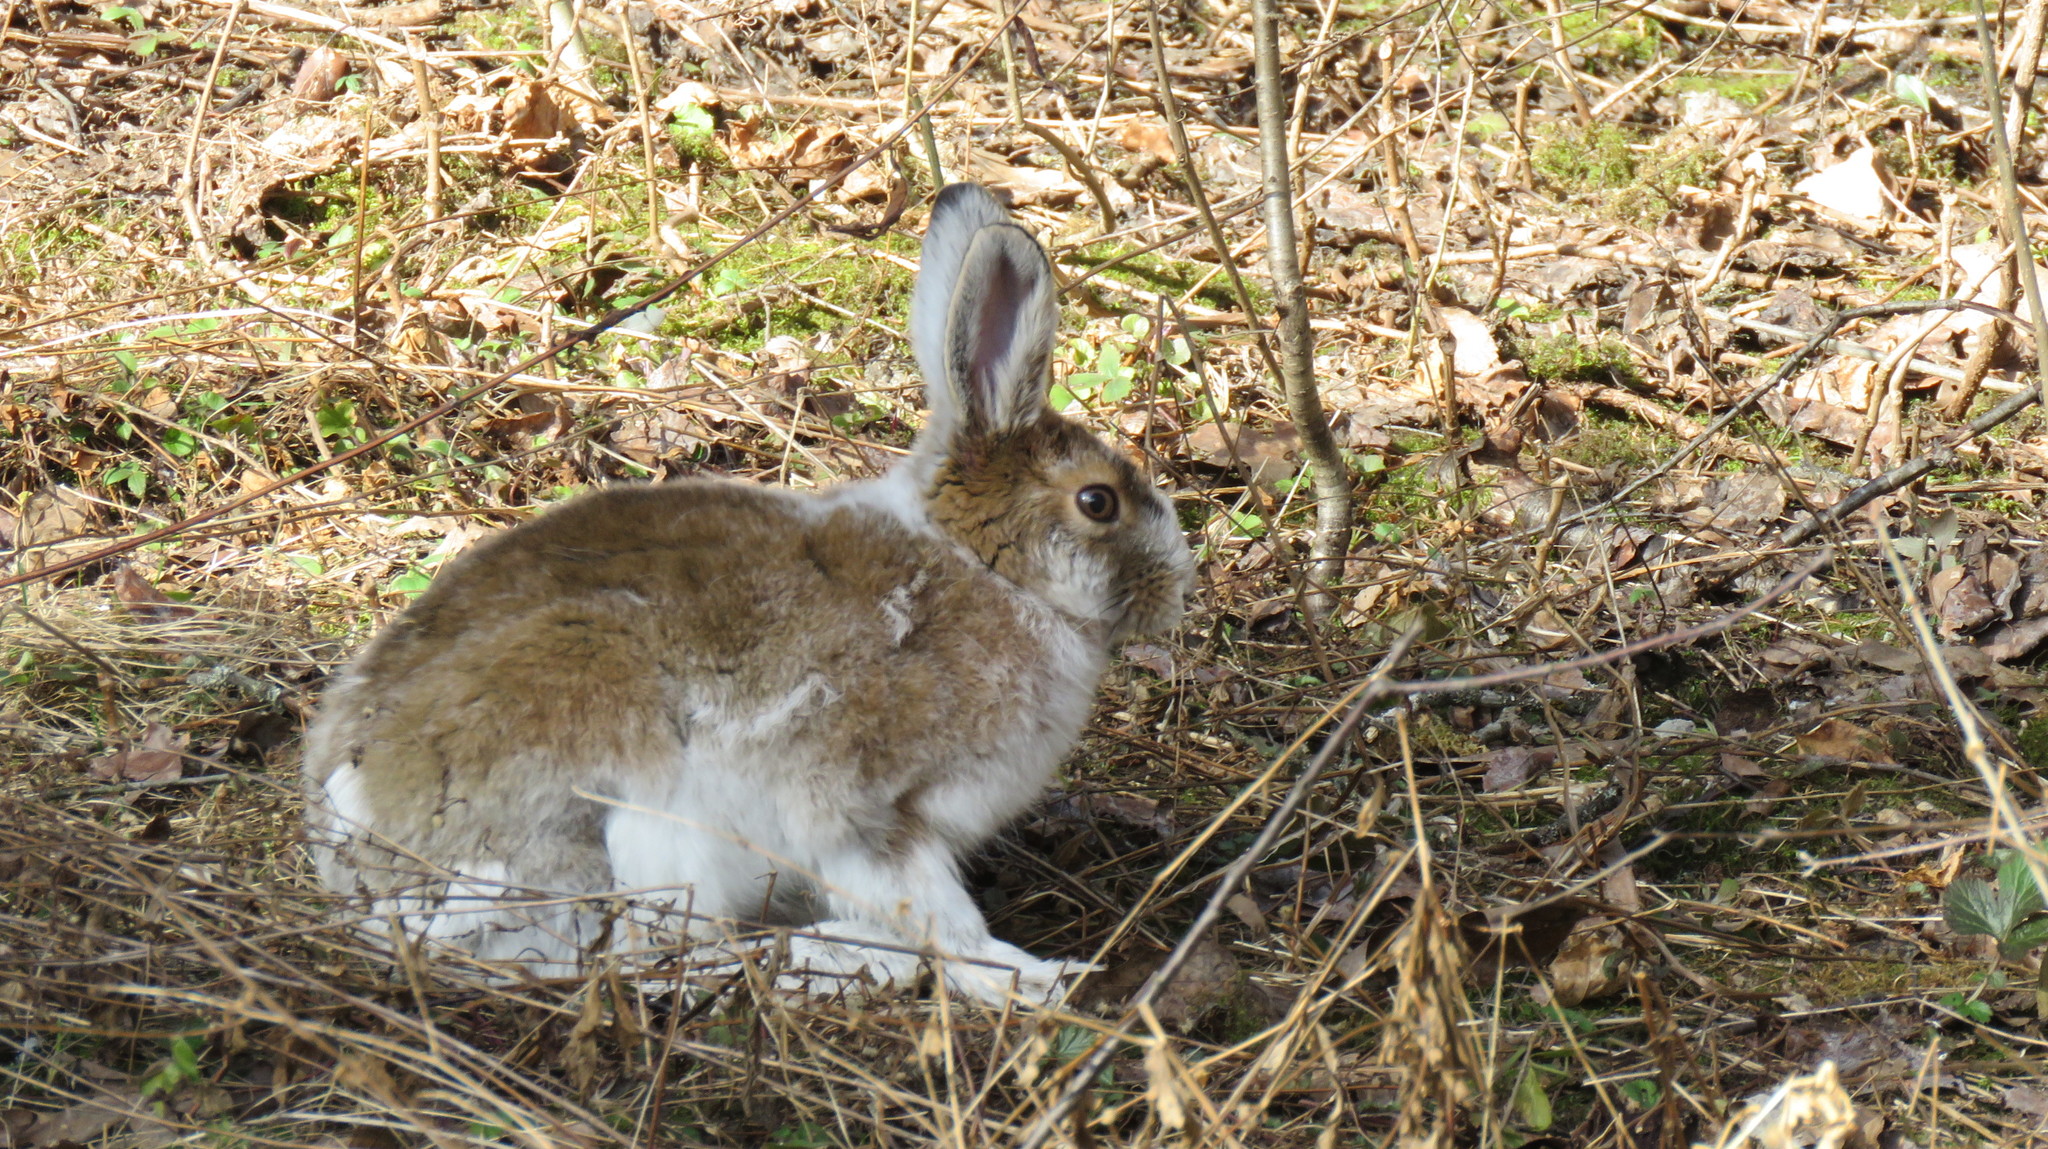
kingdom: Animalia
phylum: Chordata
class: Mammalia
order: Lagomorpha
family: Leporidae
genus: Lepus
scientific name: Lepus americanus
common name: Snowshoe hare
